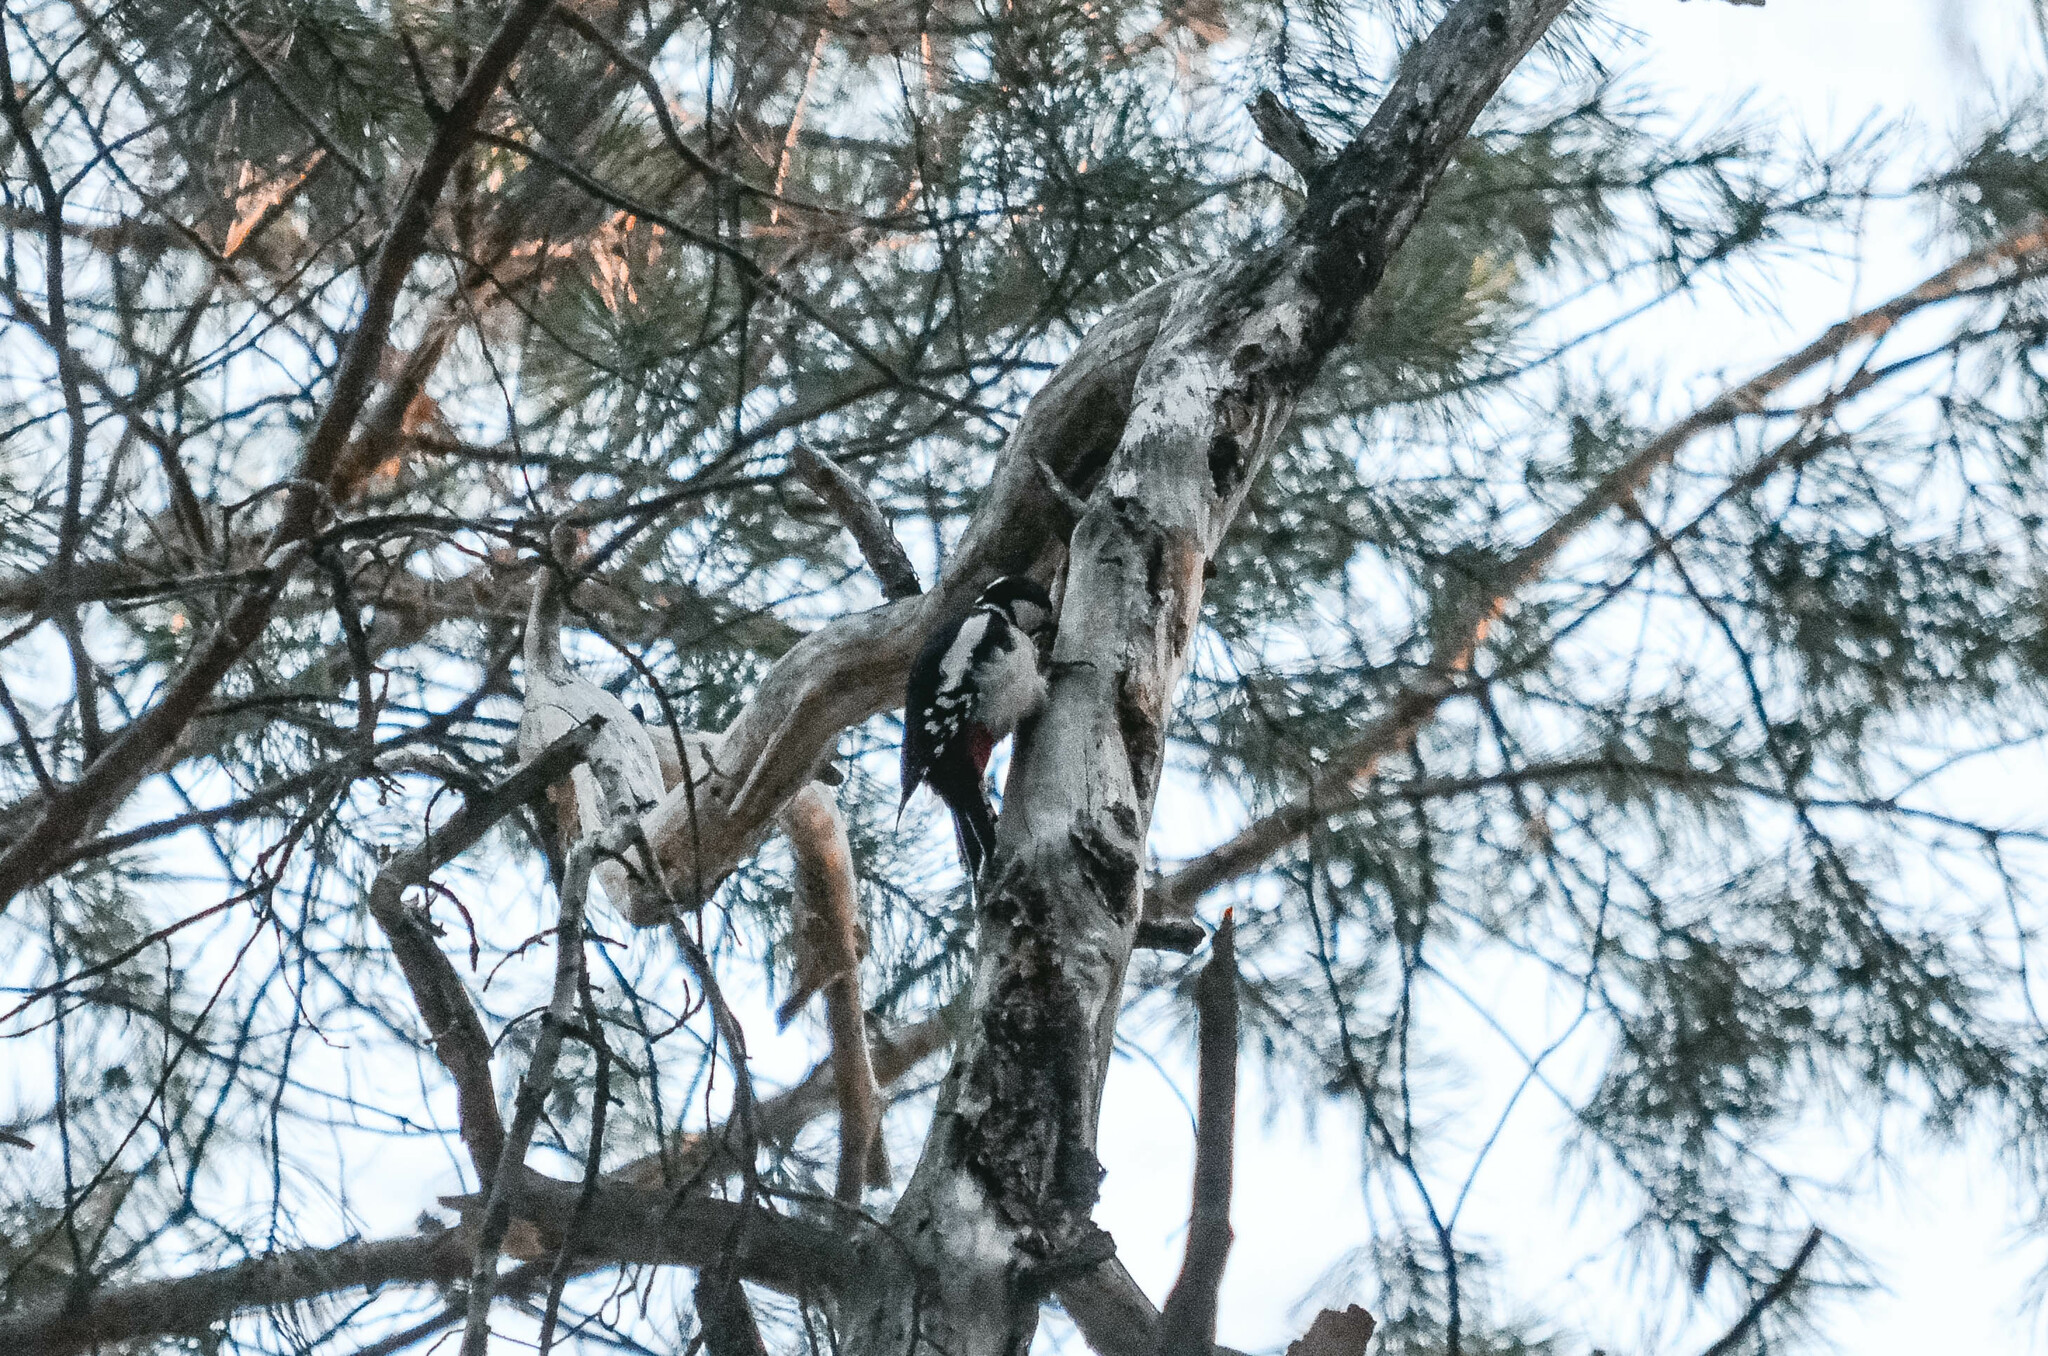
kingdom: Animalia
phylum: Chordata
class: Aves
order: Piciformes
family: Picidae
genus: Dendrocopos
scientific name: Dendrocopos major
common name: Great spotted woodpecker
